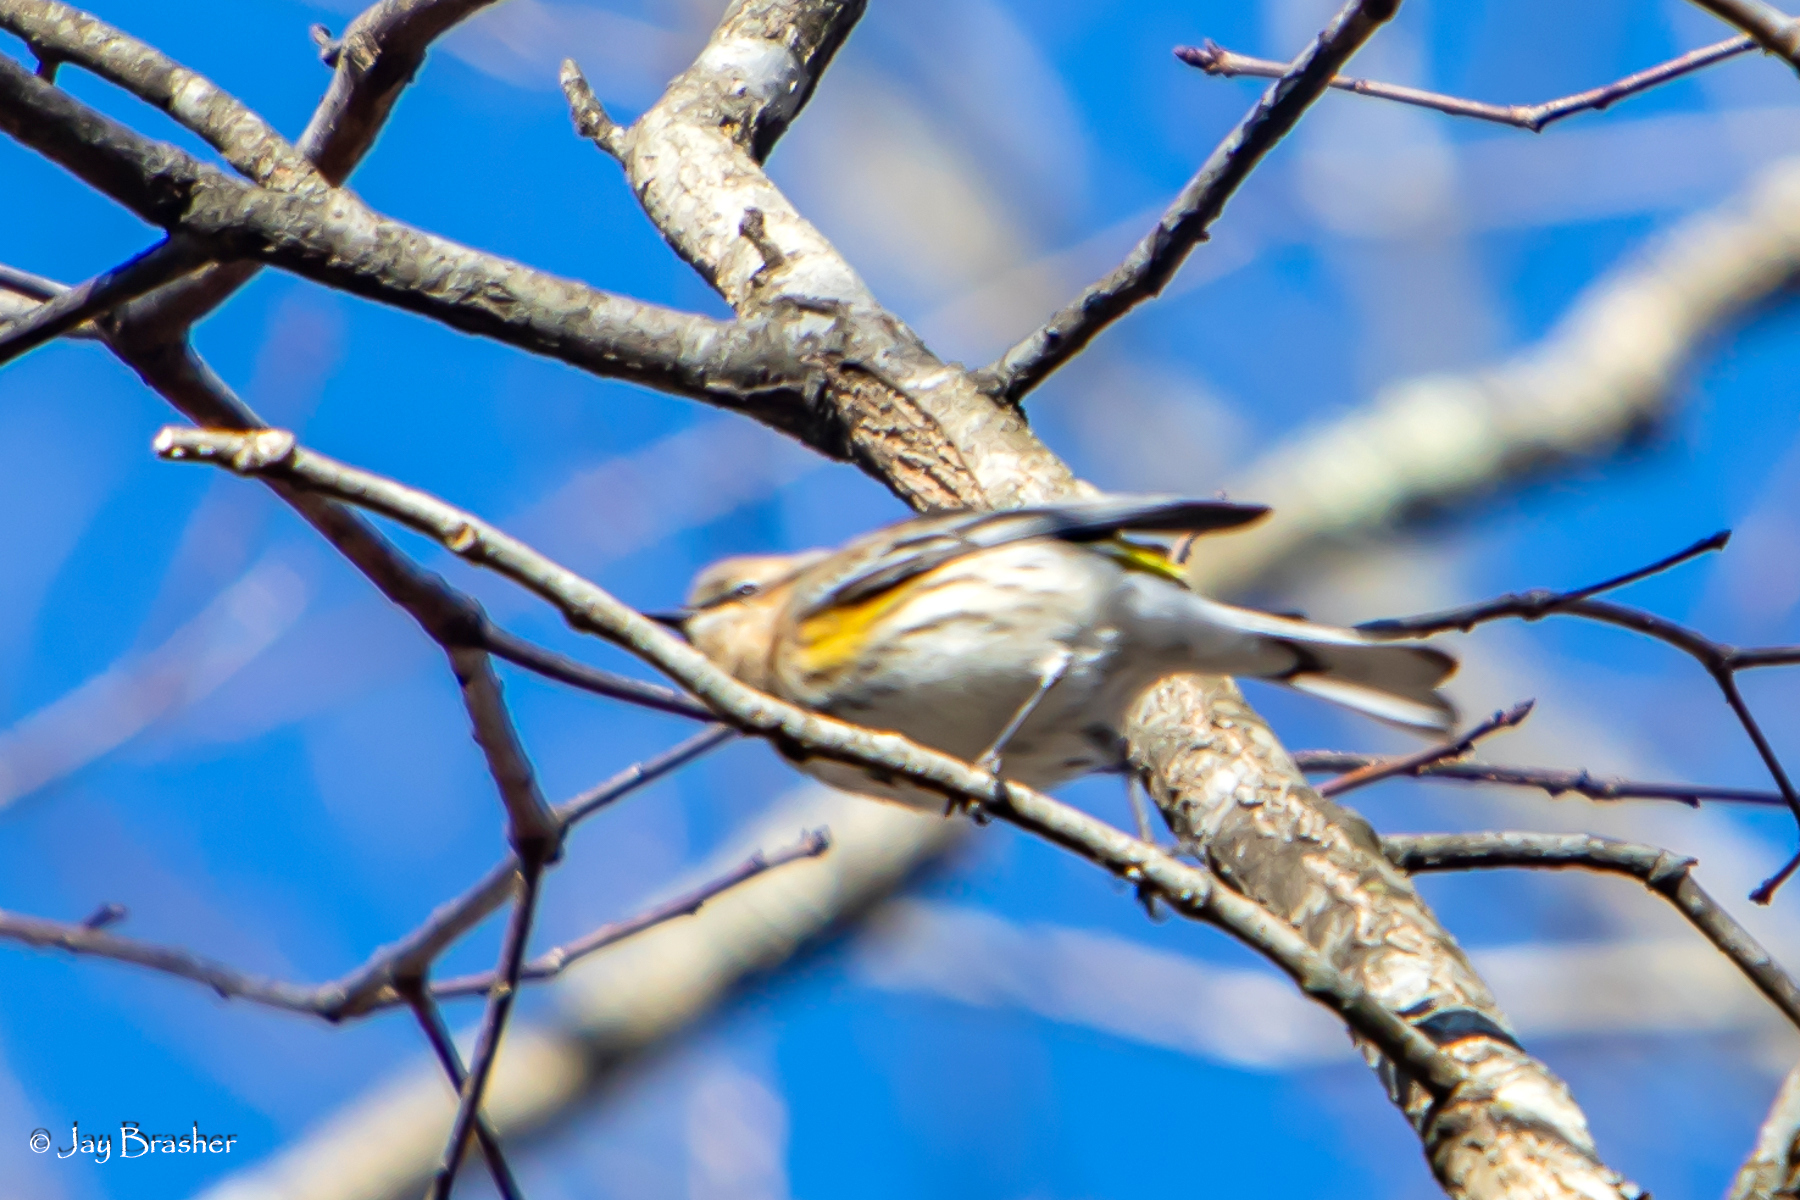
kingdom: Animalia
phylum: Chordata
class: Aves
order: Passeriformes
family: Parulidae
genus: Setophaga
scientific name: Setophaga coronata
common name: Myrtle warbler
